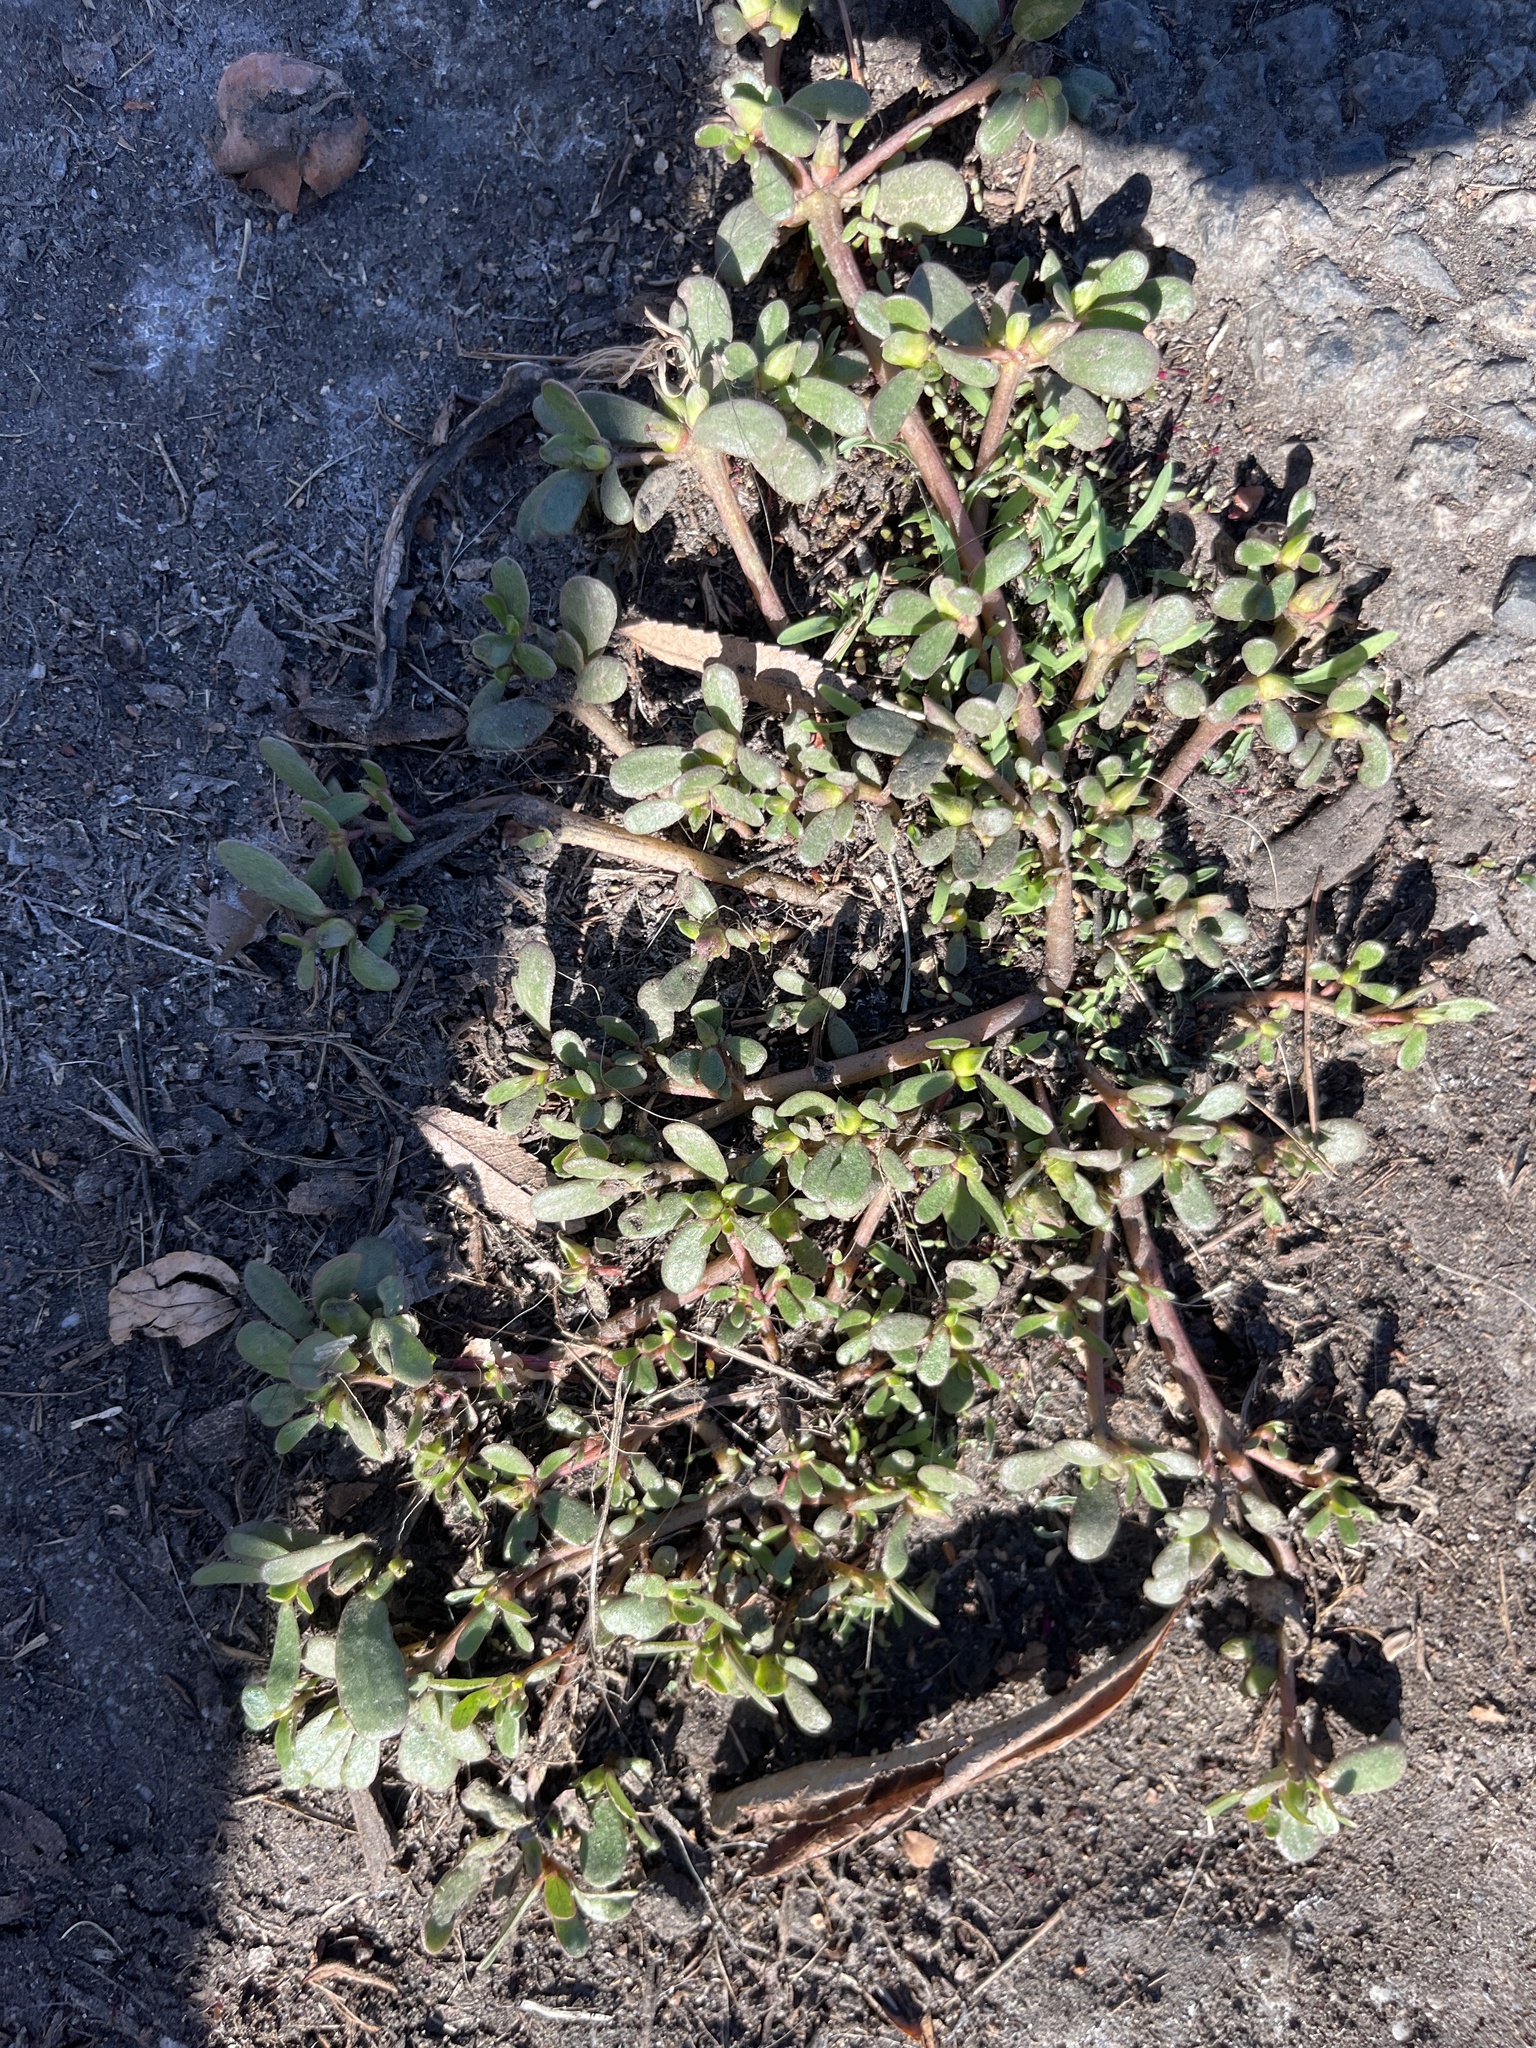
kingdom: Plantae
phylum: Tracheophyta
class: Magnoliopsida
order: Caryophyllales
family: Portulacaceae
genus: Portulaca
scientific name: Portulaca oleracea
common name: Common purslane
